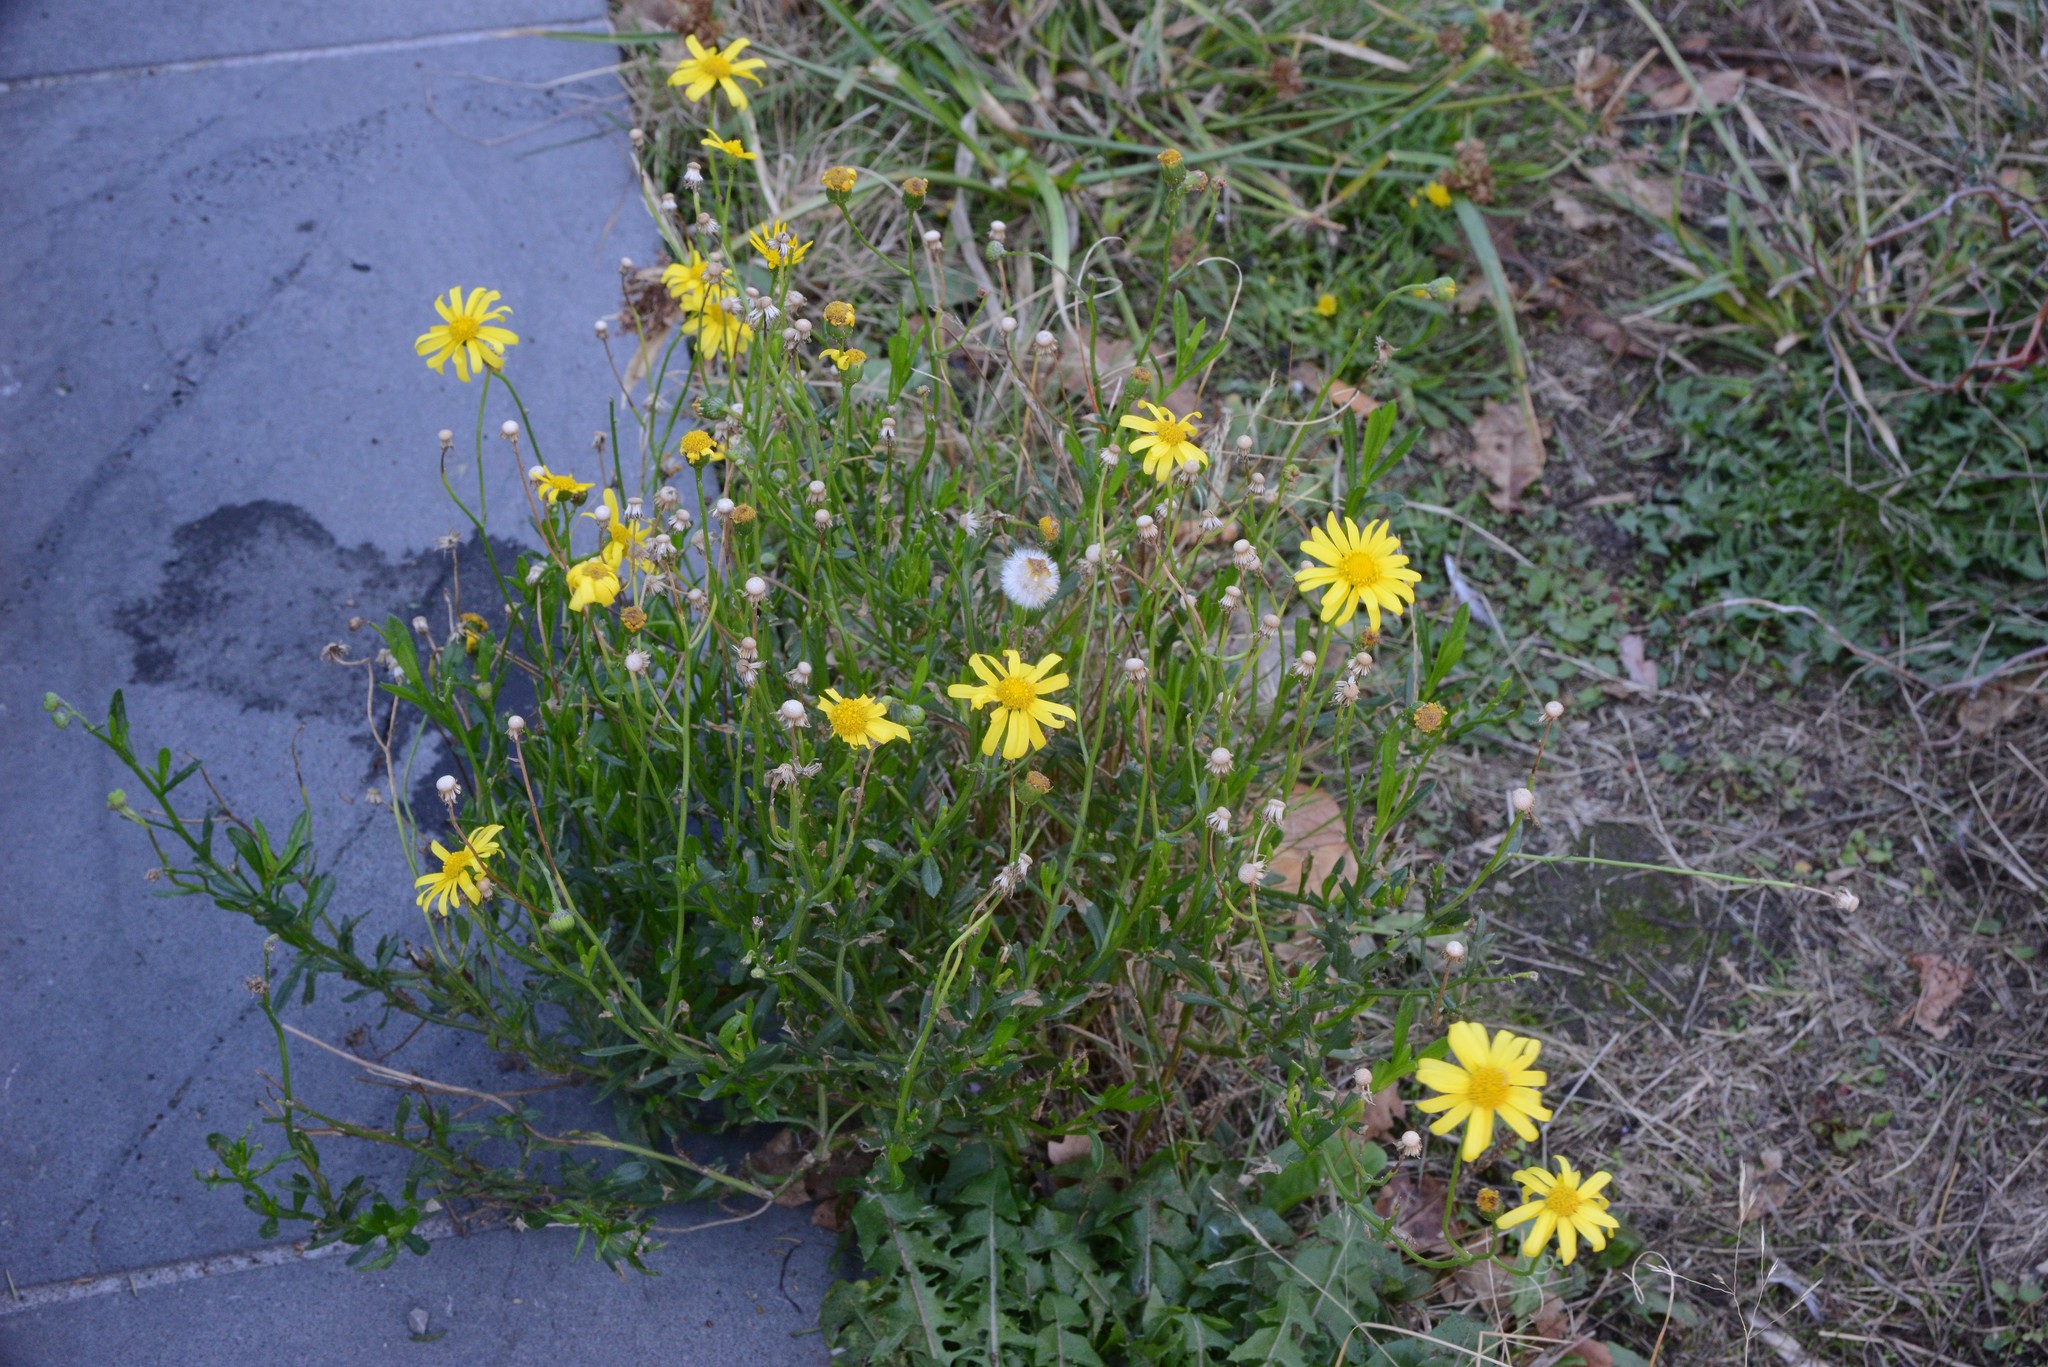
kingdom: Plantae
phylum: Tracheophyta
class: Magnoliopsida
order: Asterales
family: Asteraceae
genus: Senecio
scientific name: Senecio skirrhodon
